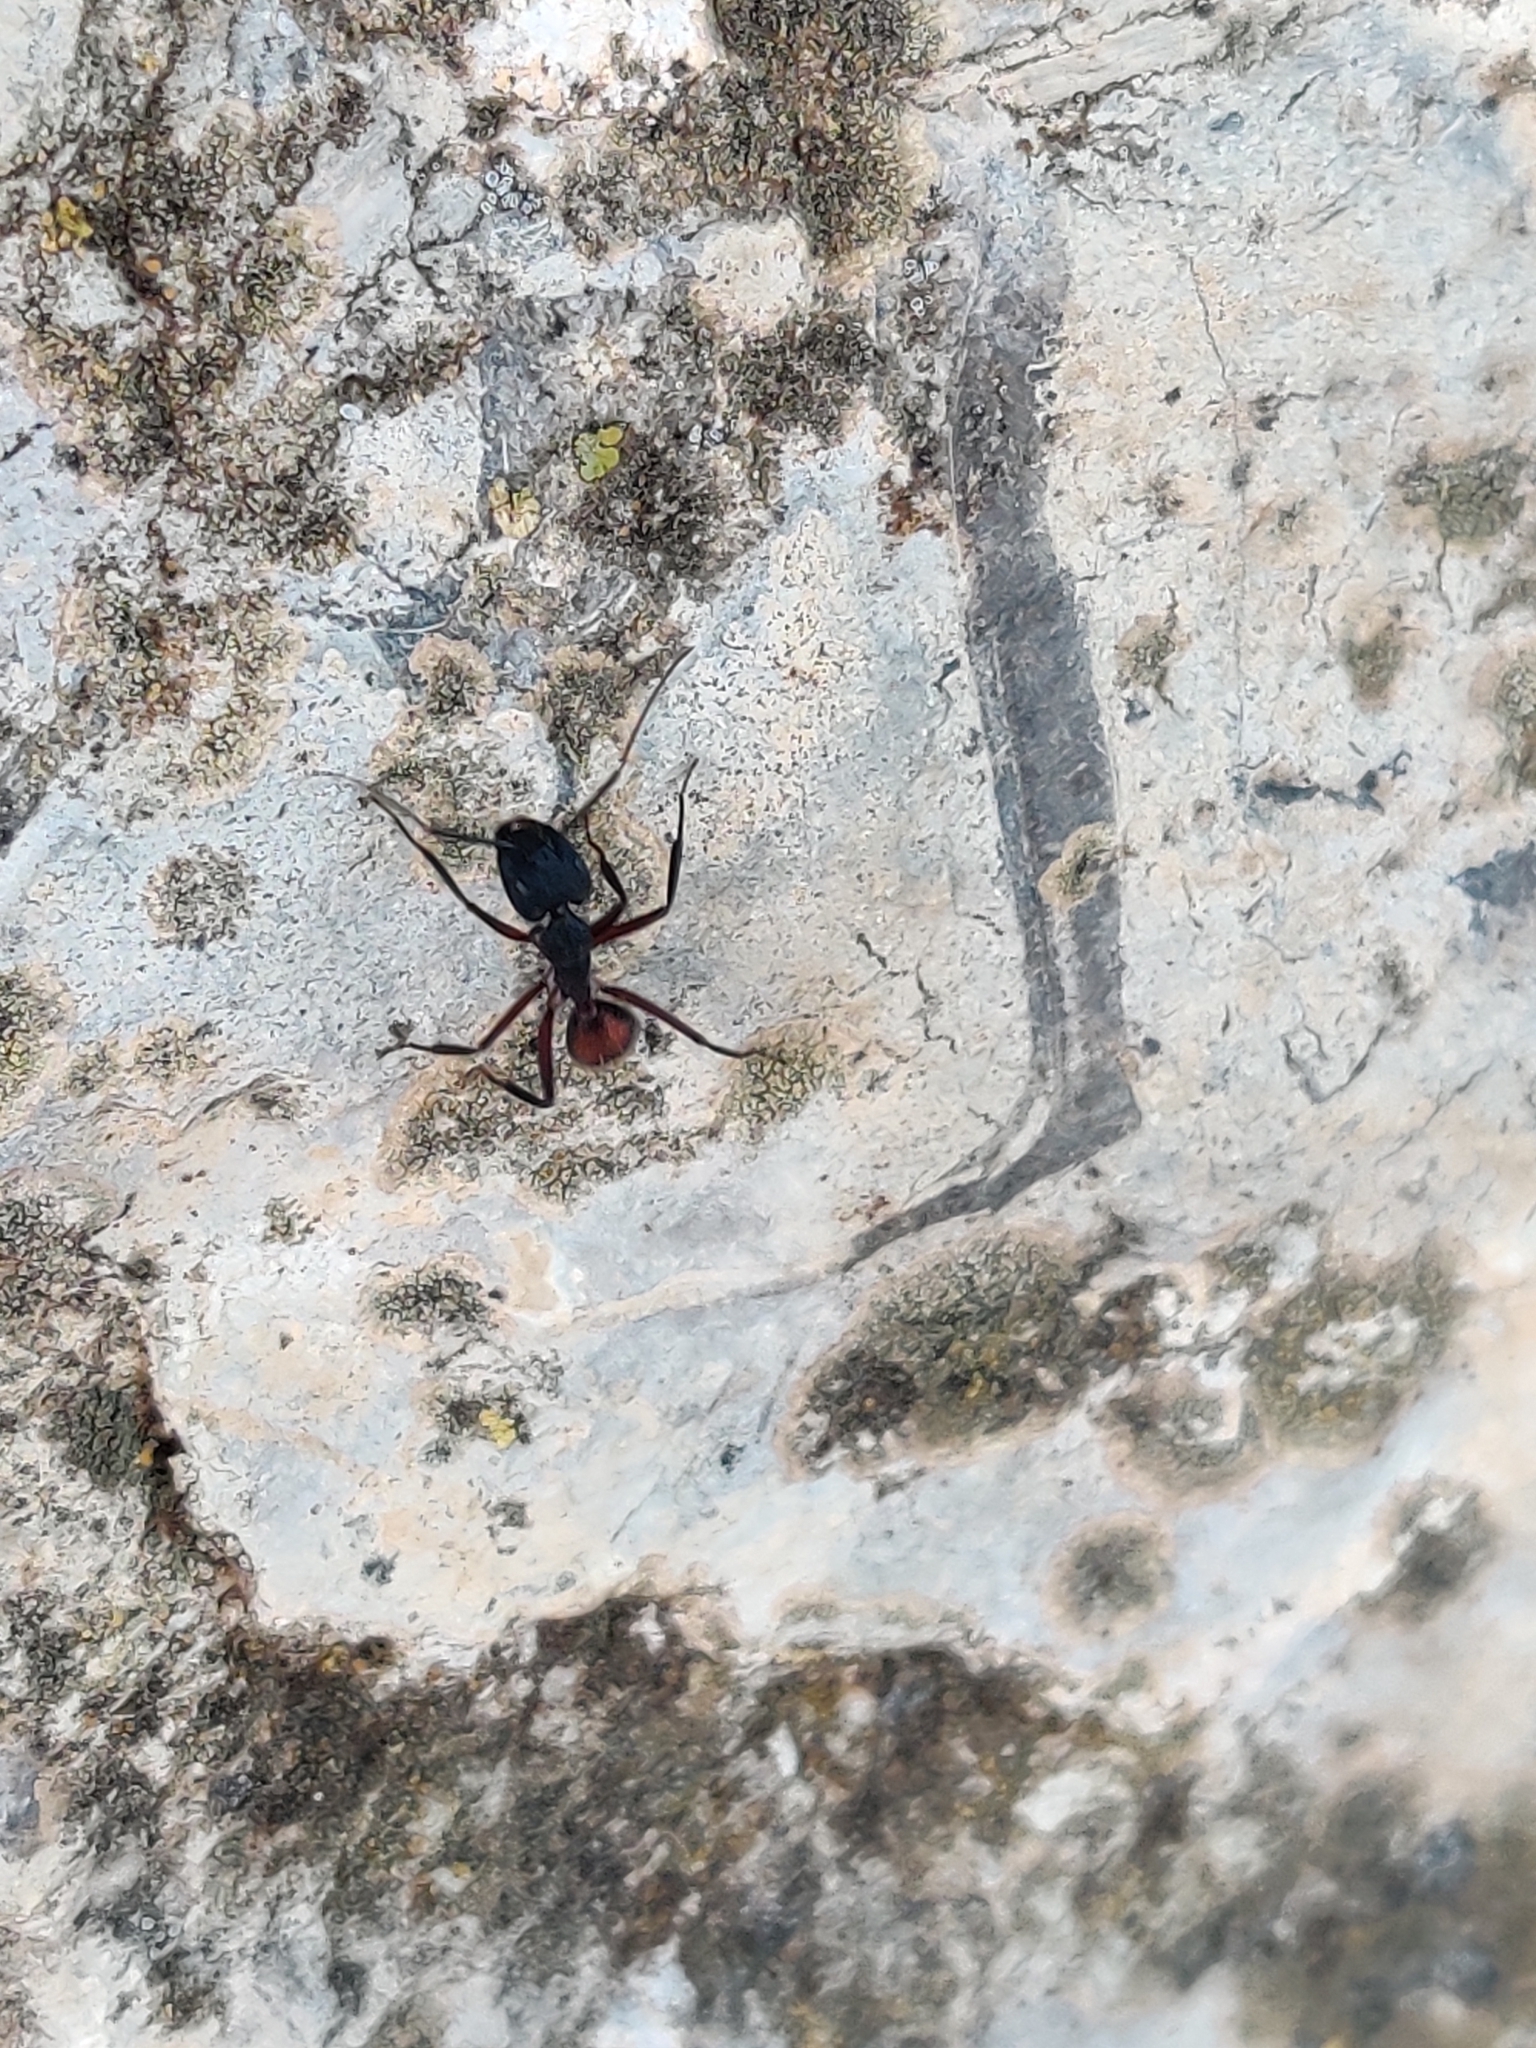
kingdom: Animalia
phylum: Arthropoda
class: Insecta
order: Hymenoptera
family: Formicidae
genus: Camponotus
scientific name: Camponotus cruentatus
